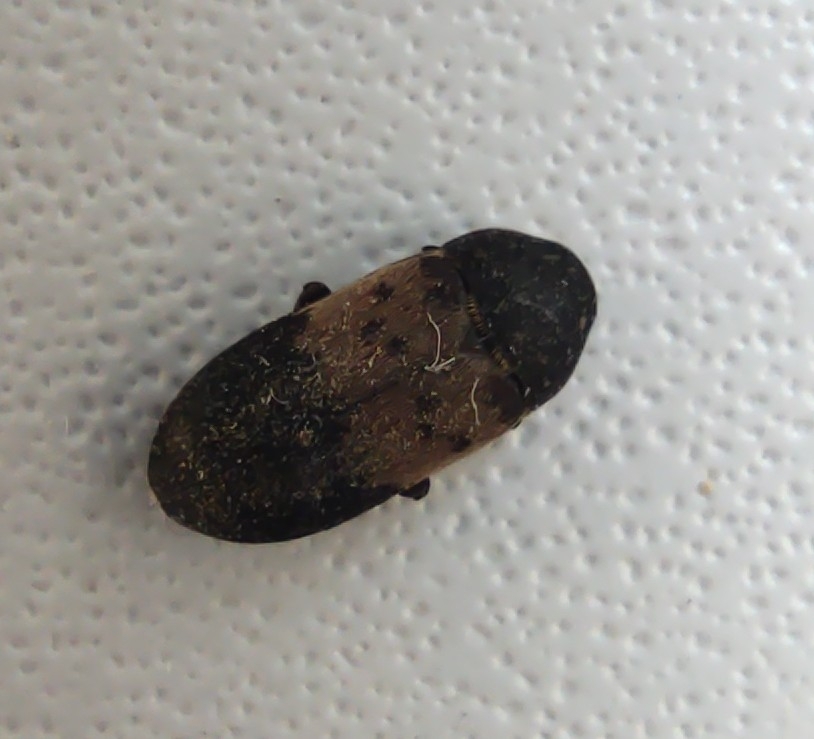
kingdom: Animalia
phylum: Arthropoda
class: Insecta
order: Coleoptera
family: Dermestidae
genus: Dermestes
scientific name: Dermestes lardarius
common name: Larder beetle
